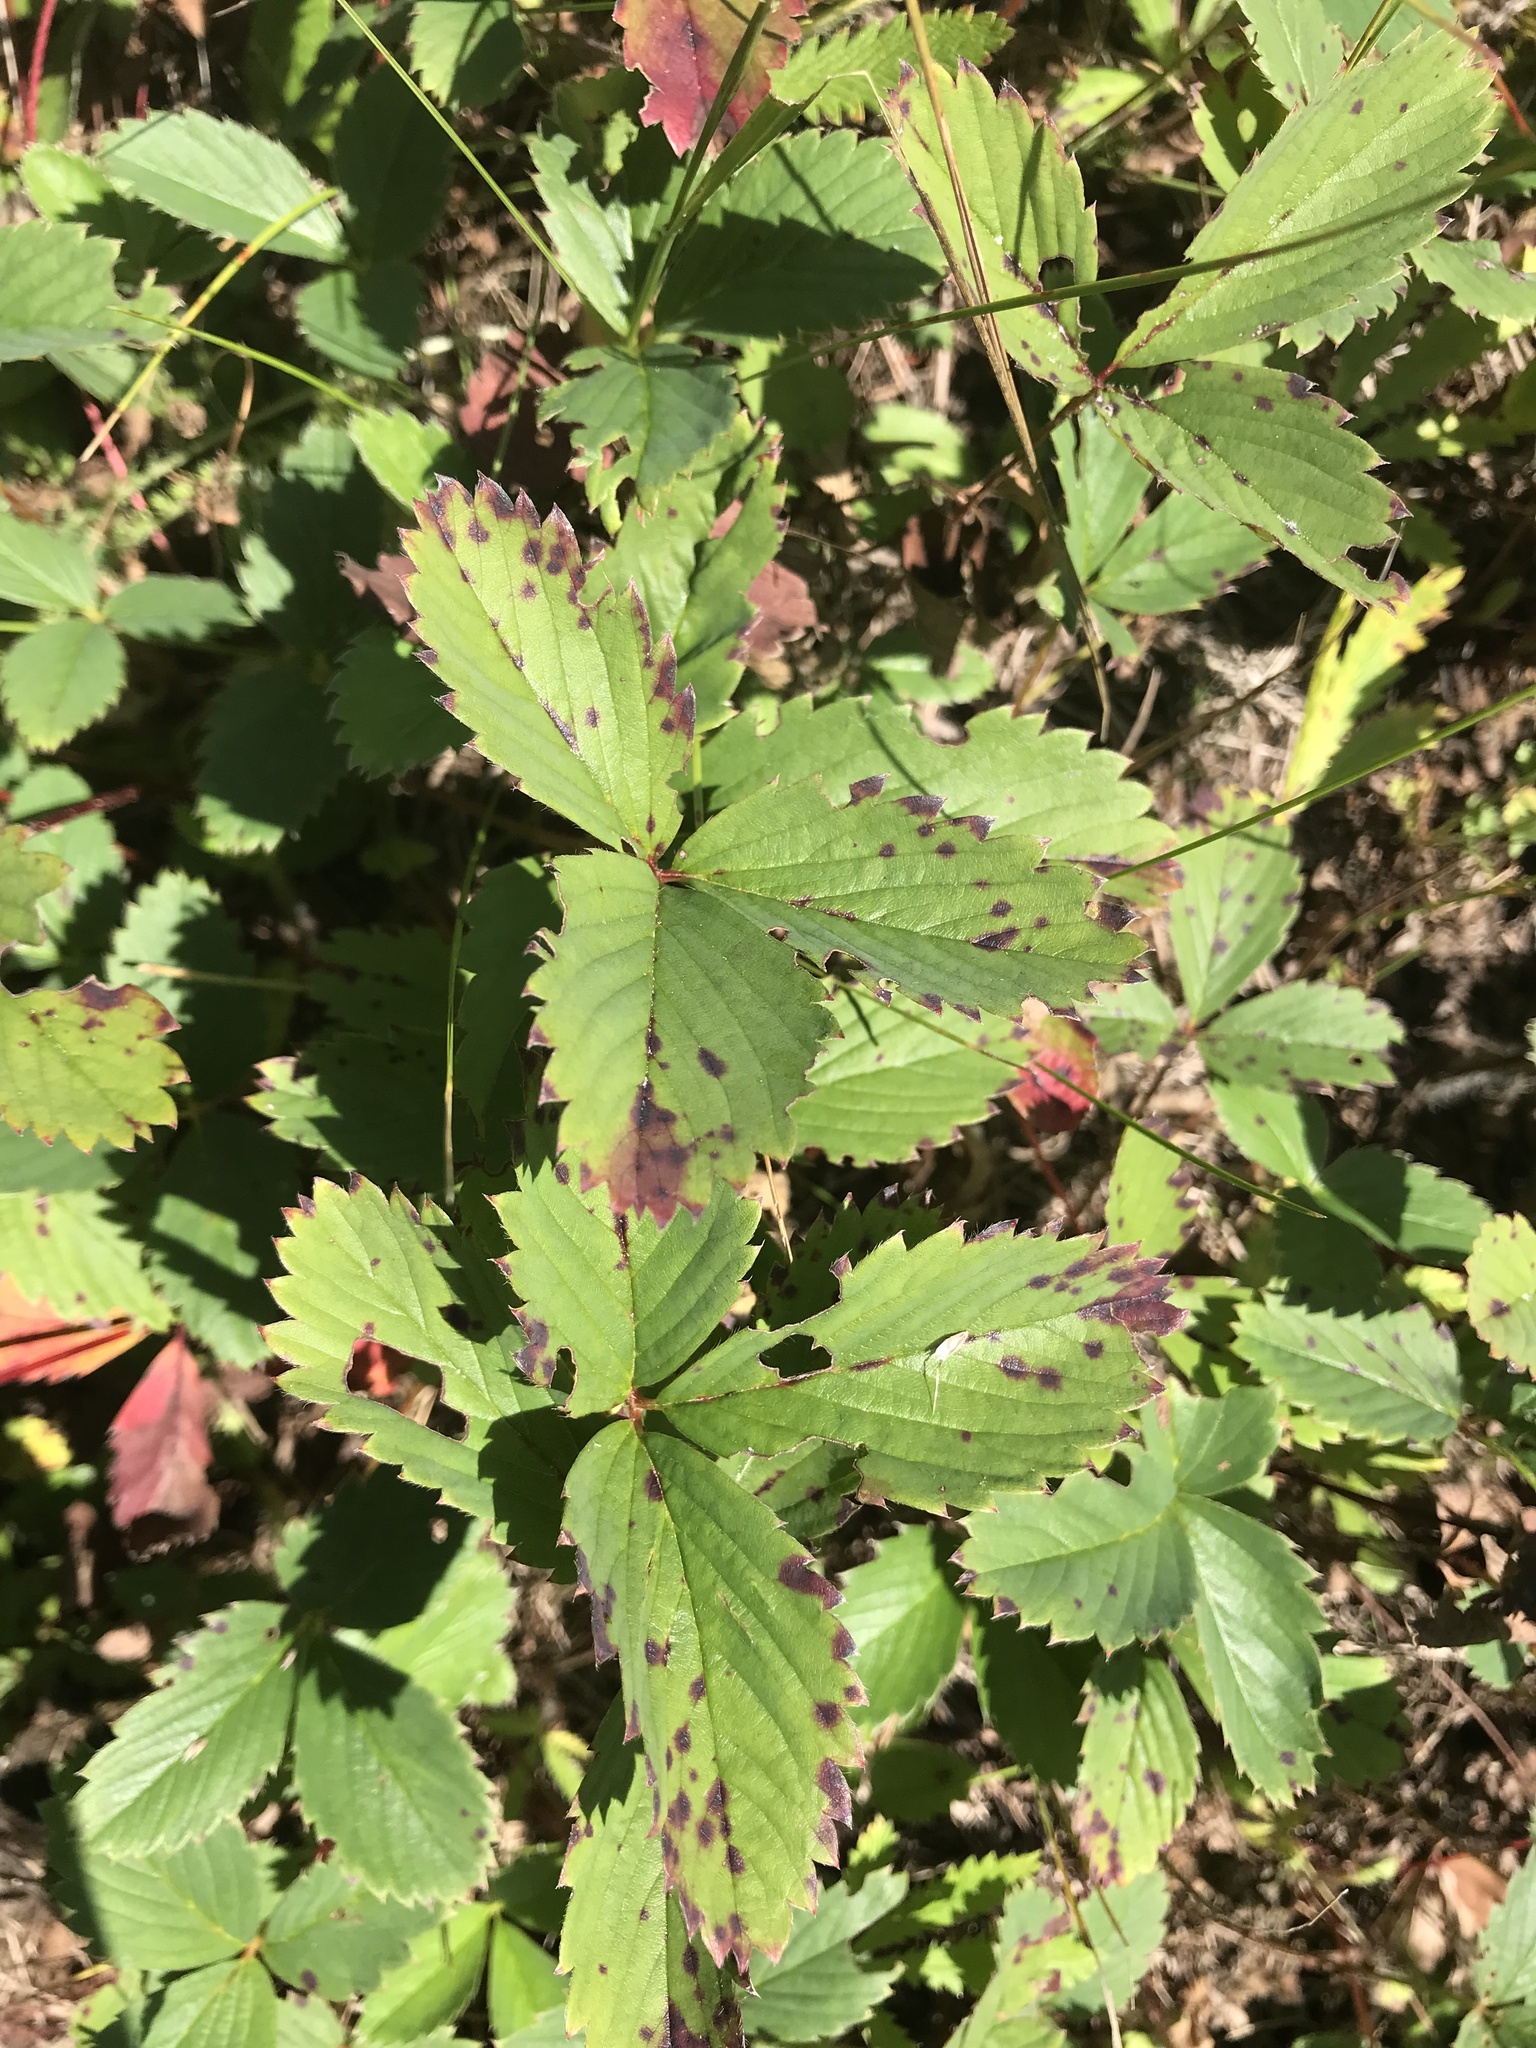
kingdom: Plantae
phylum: Tracheophyta
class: Magnoliopsida
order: Rosales
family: Rosaceae
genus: Fragaria
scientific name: Fragaria virginiana
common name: Thickleaved wild strawberry
